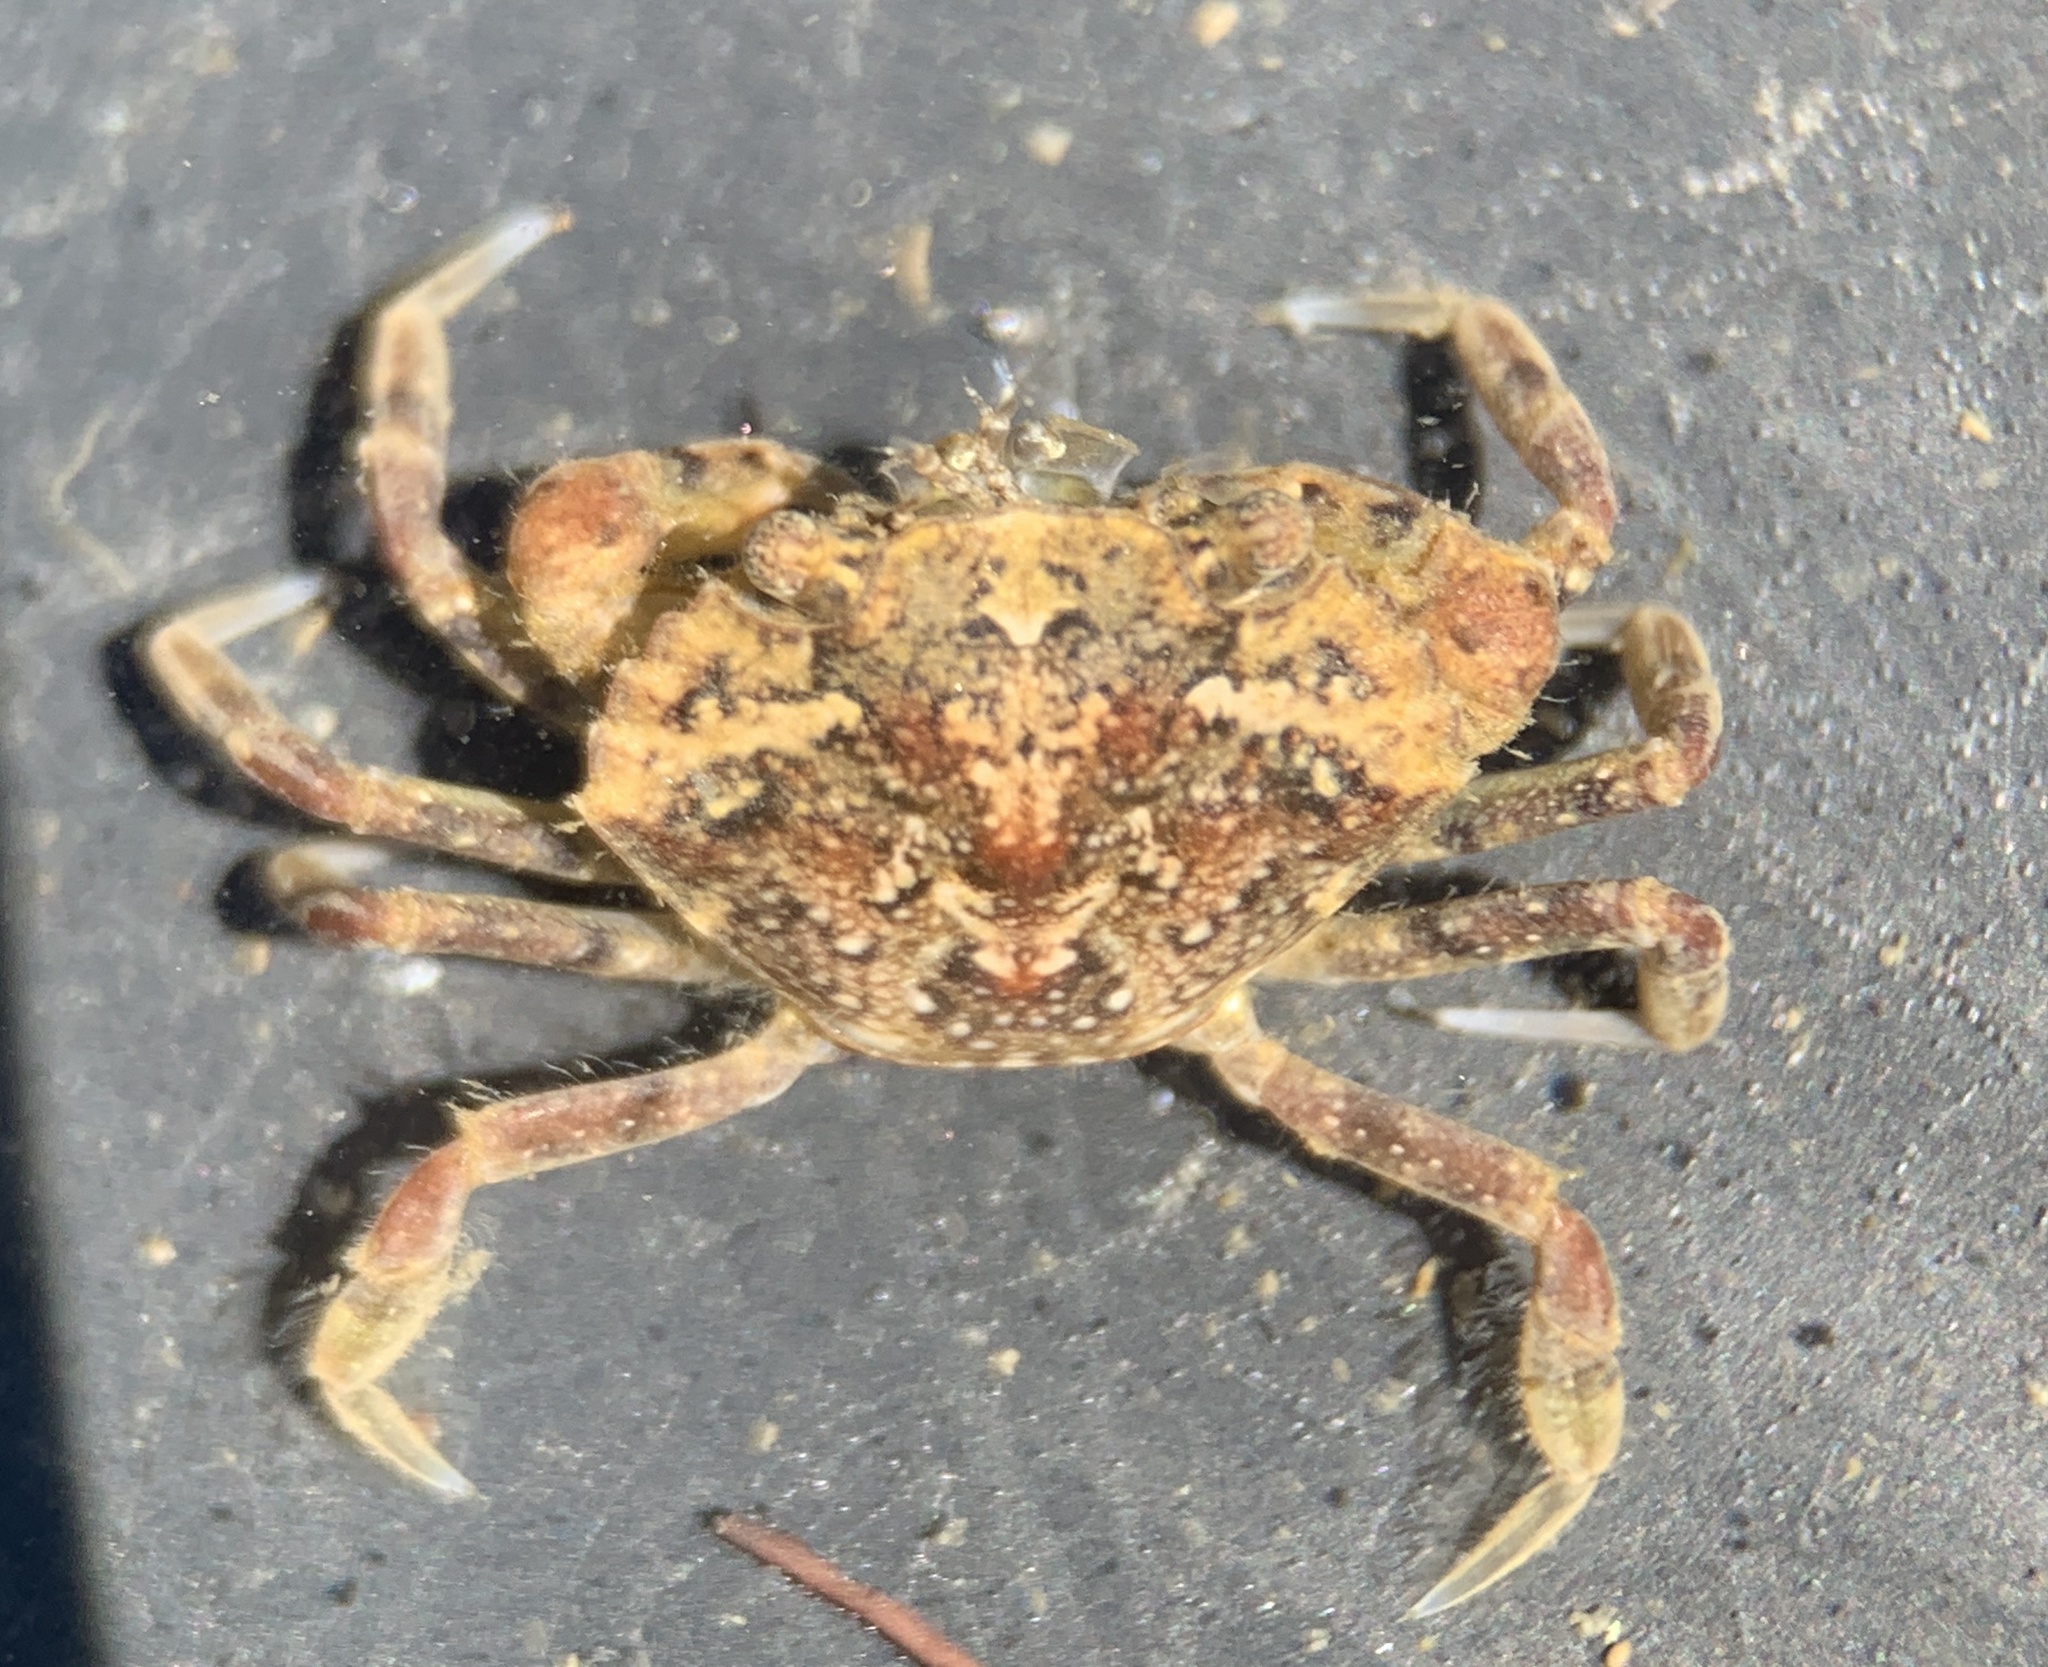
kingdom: Animalia
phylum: Arthropoda
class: Malacostraca
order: Decapoda
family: Carcinidae
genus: Carcinus
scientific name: Carcinus maenas
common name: European green crab
